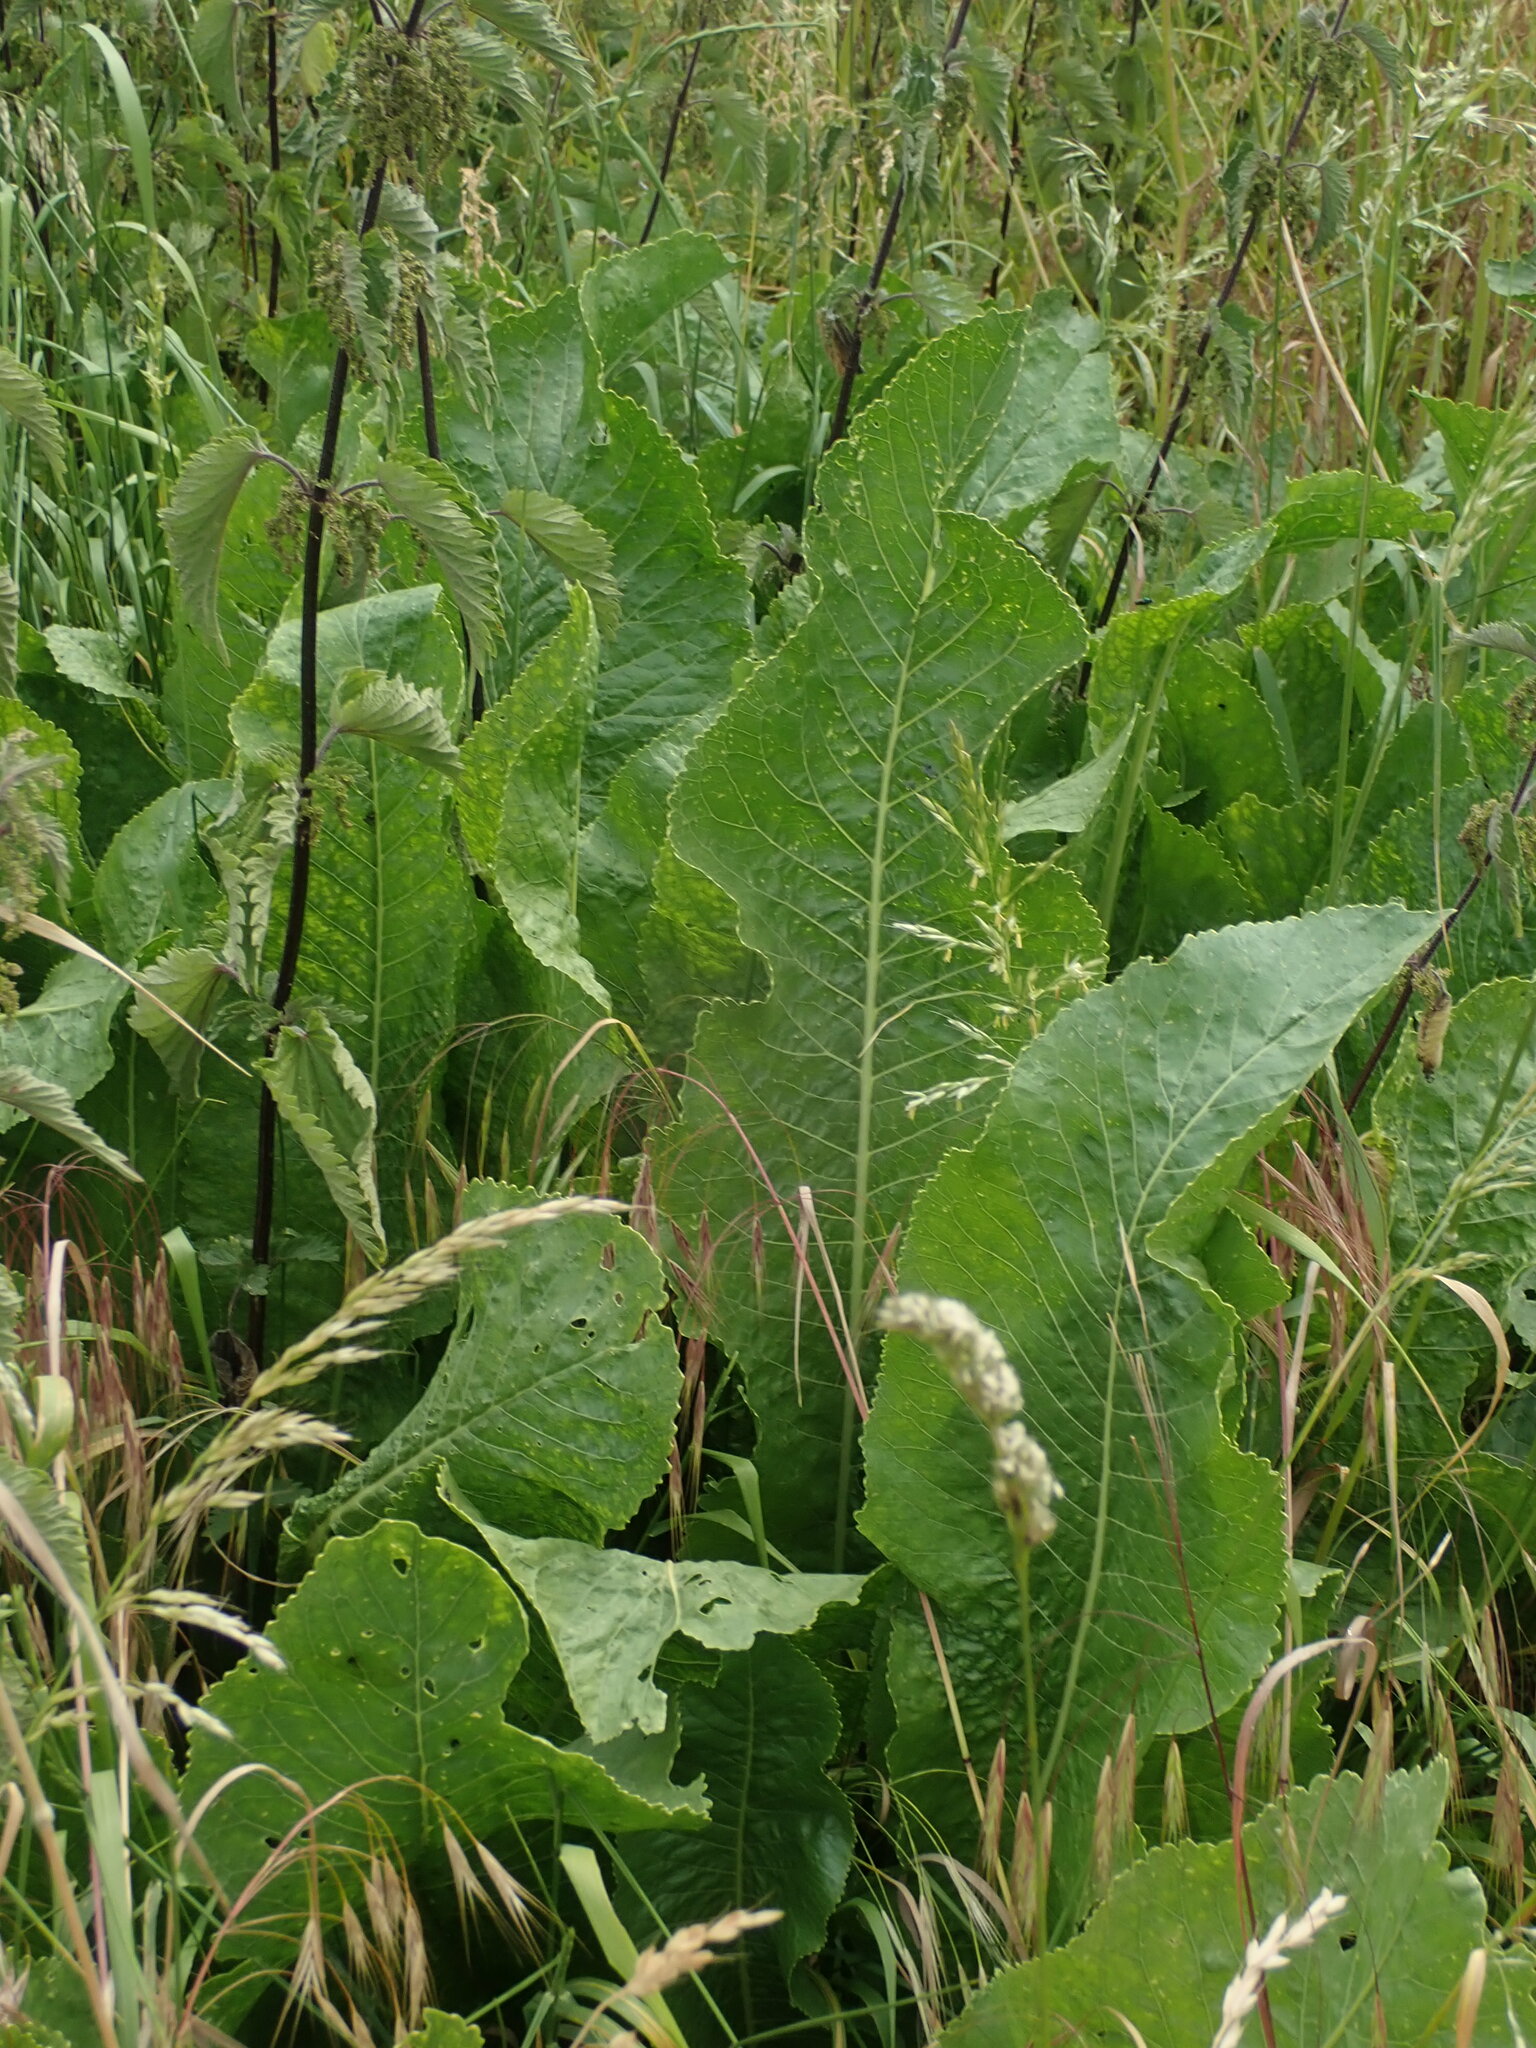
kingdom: Plantae
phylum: Tracheophyta
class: Magnoliopsida
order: Brassicales
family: Brassicaceae
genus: Armoracia
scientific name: Armoracia rusticana
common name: Horseradish
